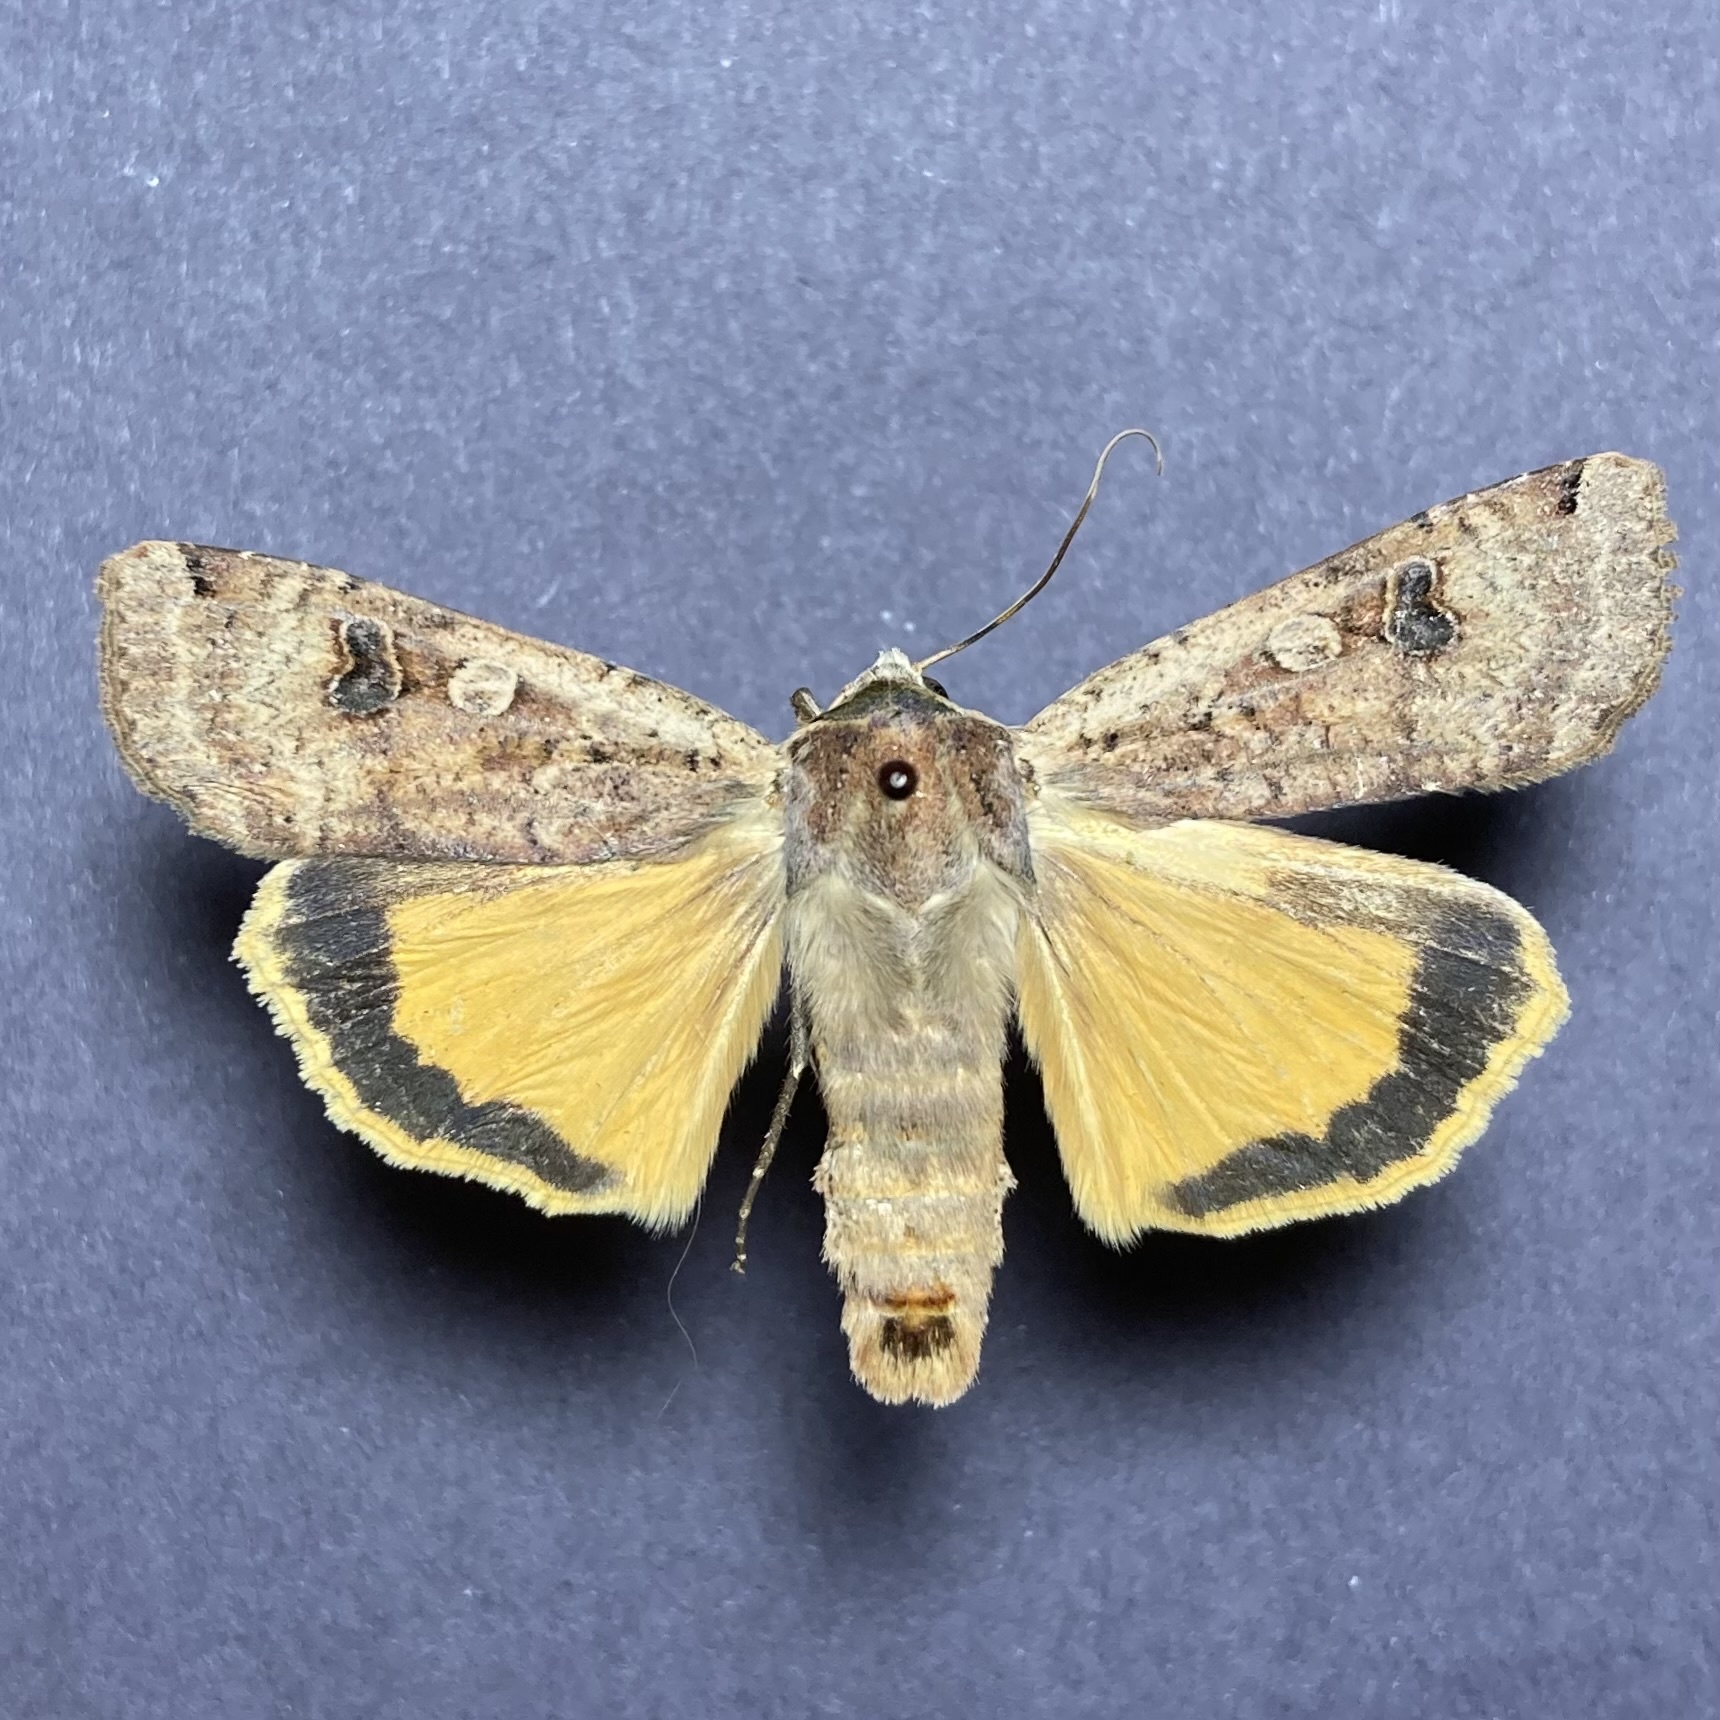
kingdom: Animalia
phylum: Arthropoda
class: Insecta
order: Lepidoptera
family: Noctuidae
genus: Noctua
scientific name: Noctua pronuba
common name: Large yellow underwing
